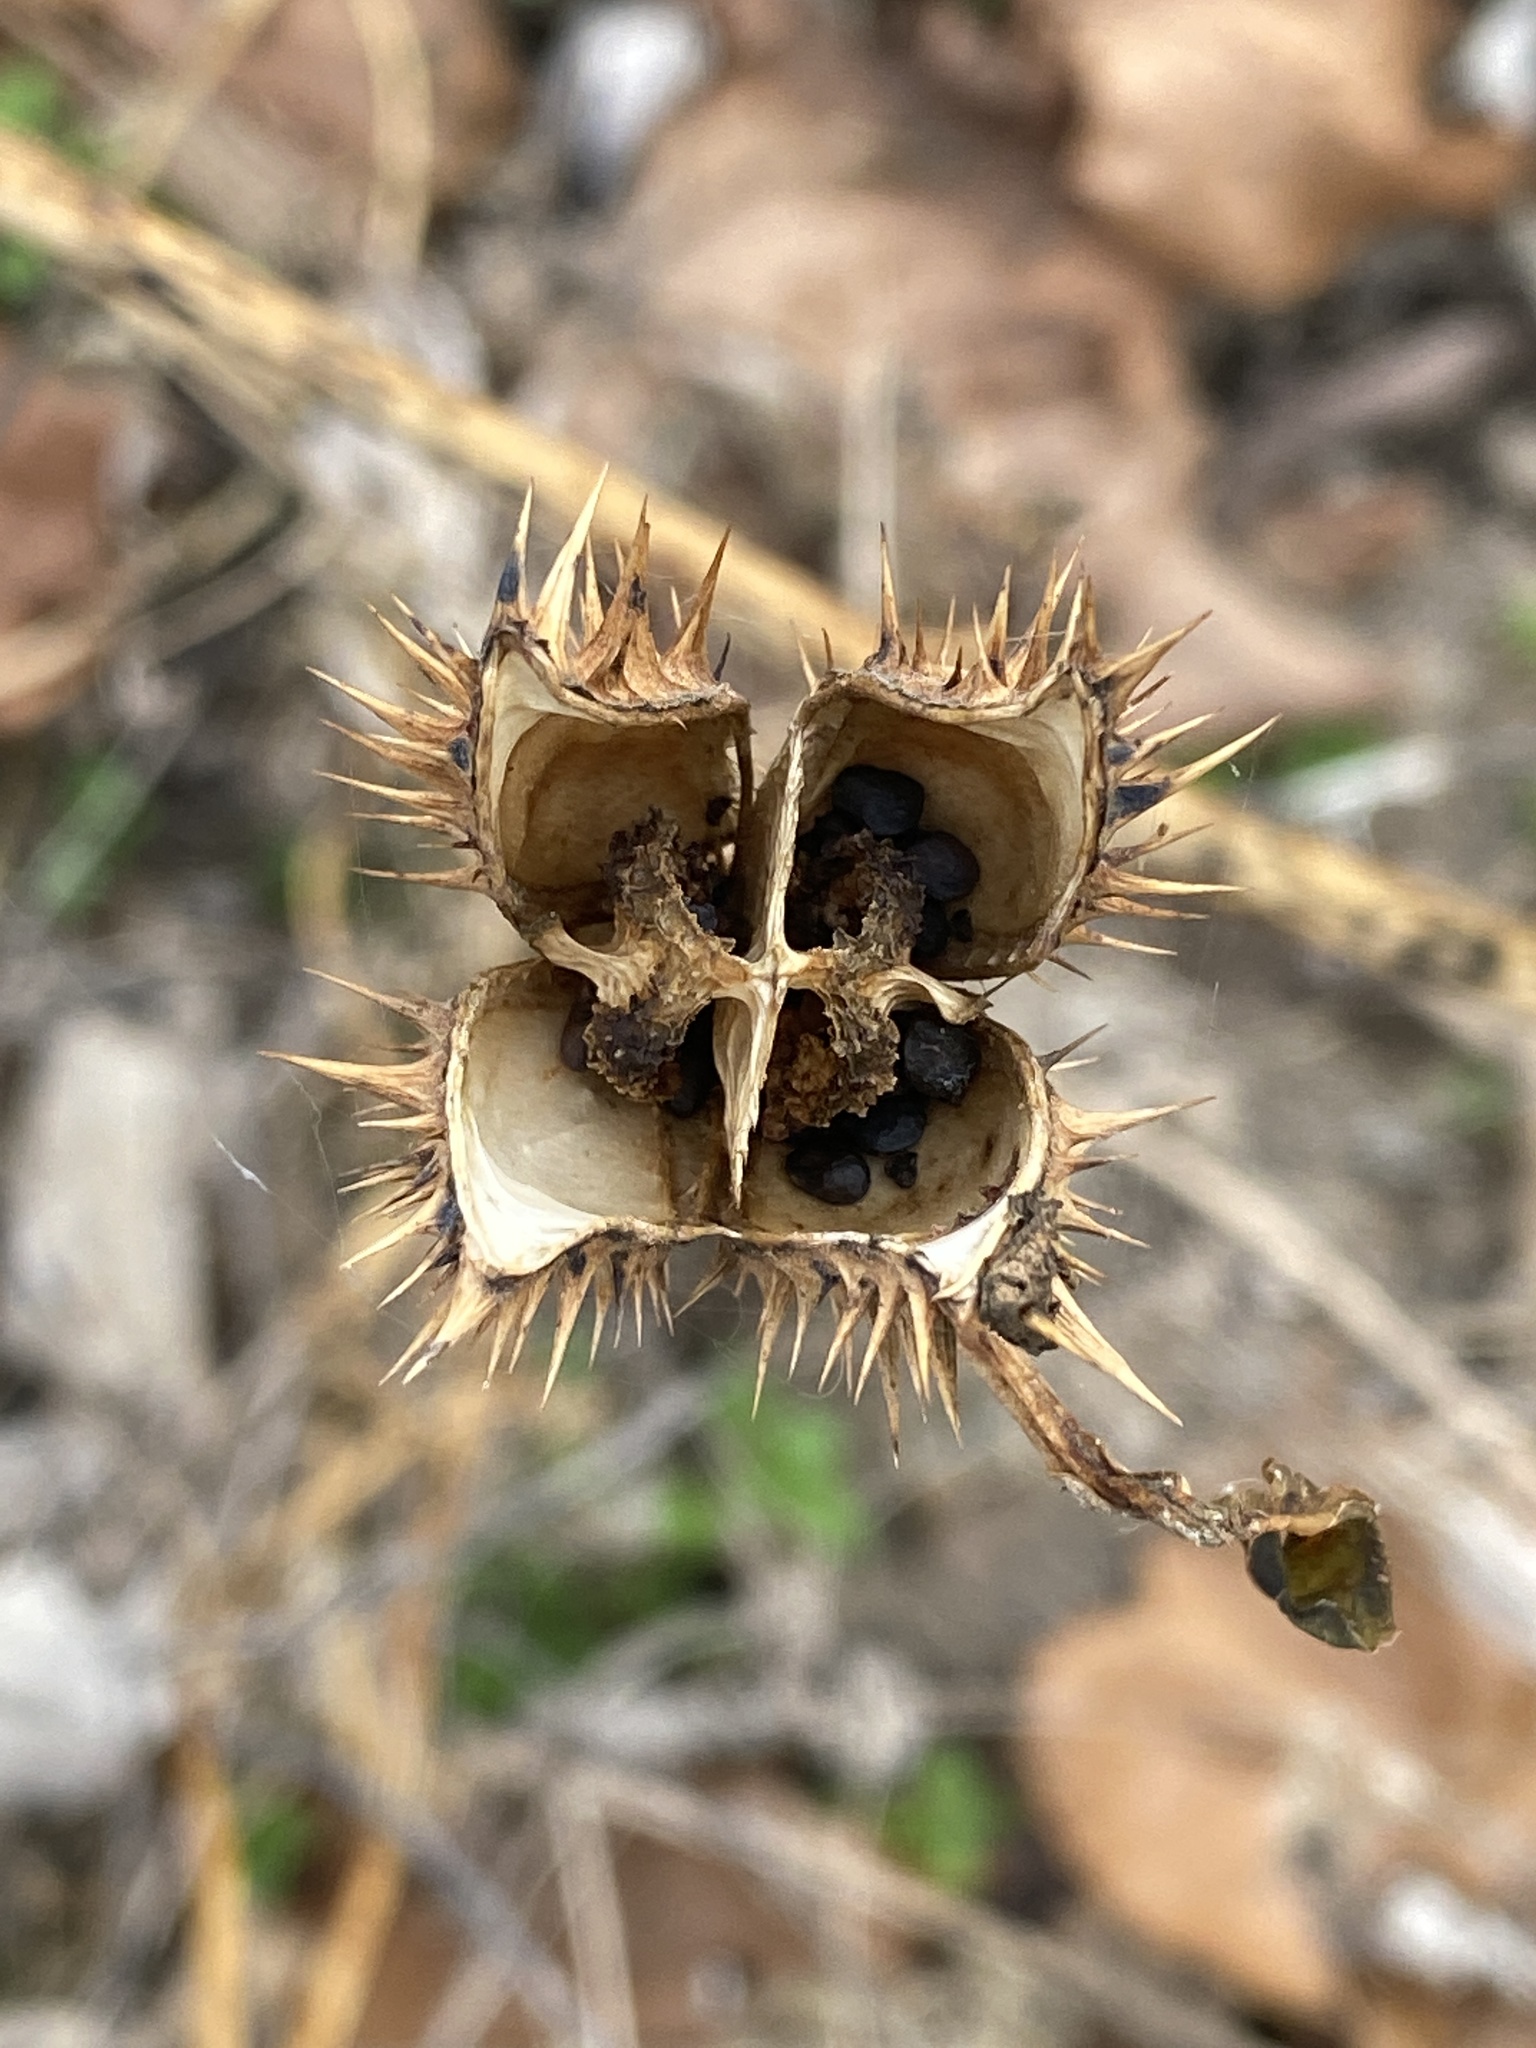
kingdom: Plantae
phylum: Tracheophyta
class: Magnoliopsida
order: Solanales
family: Solanaceae
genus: Datura
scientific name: Datura stramonium
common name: Thorn-apple
